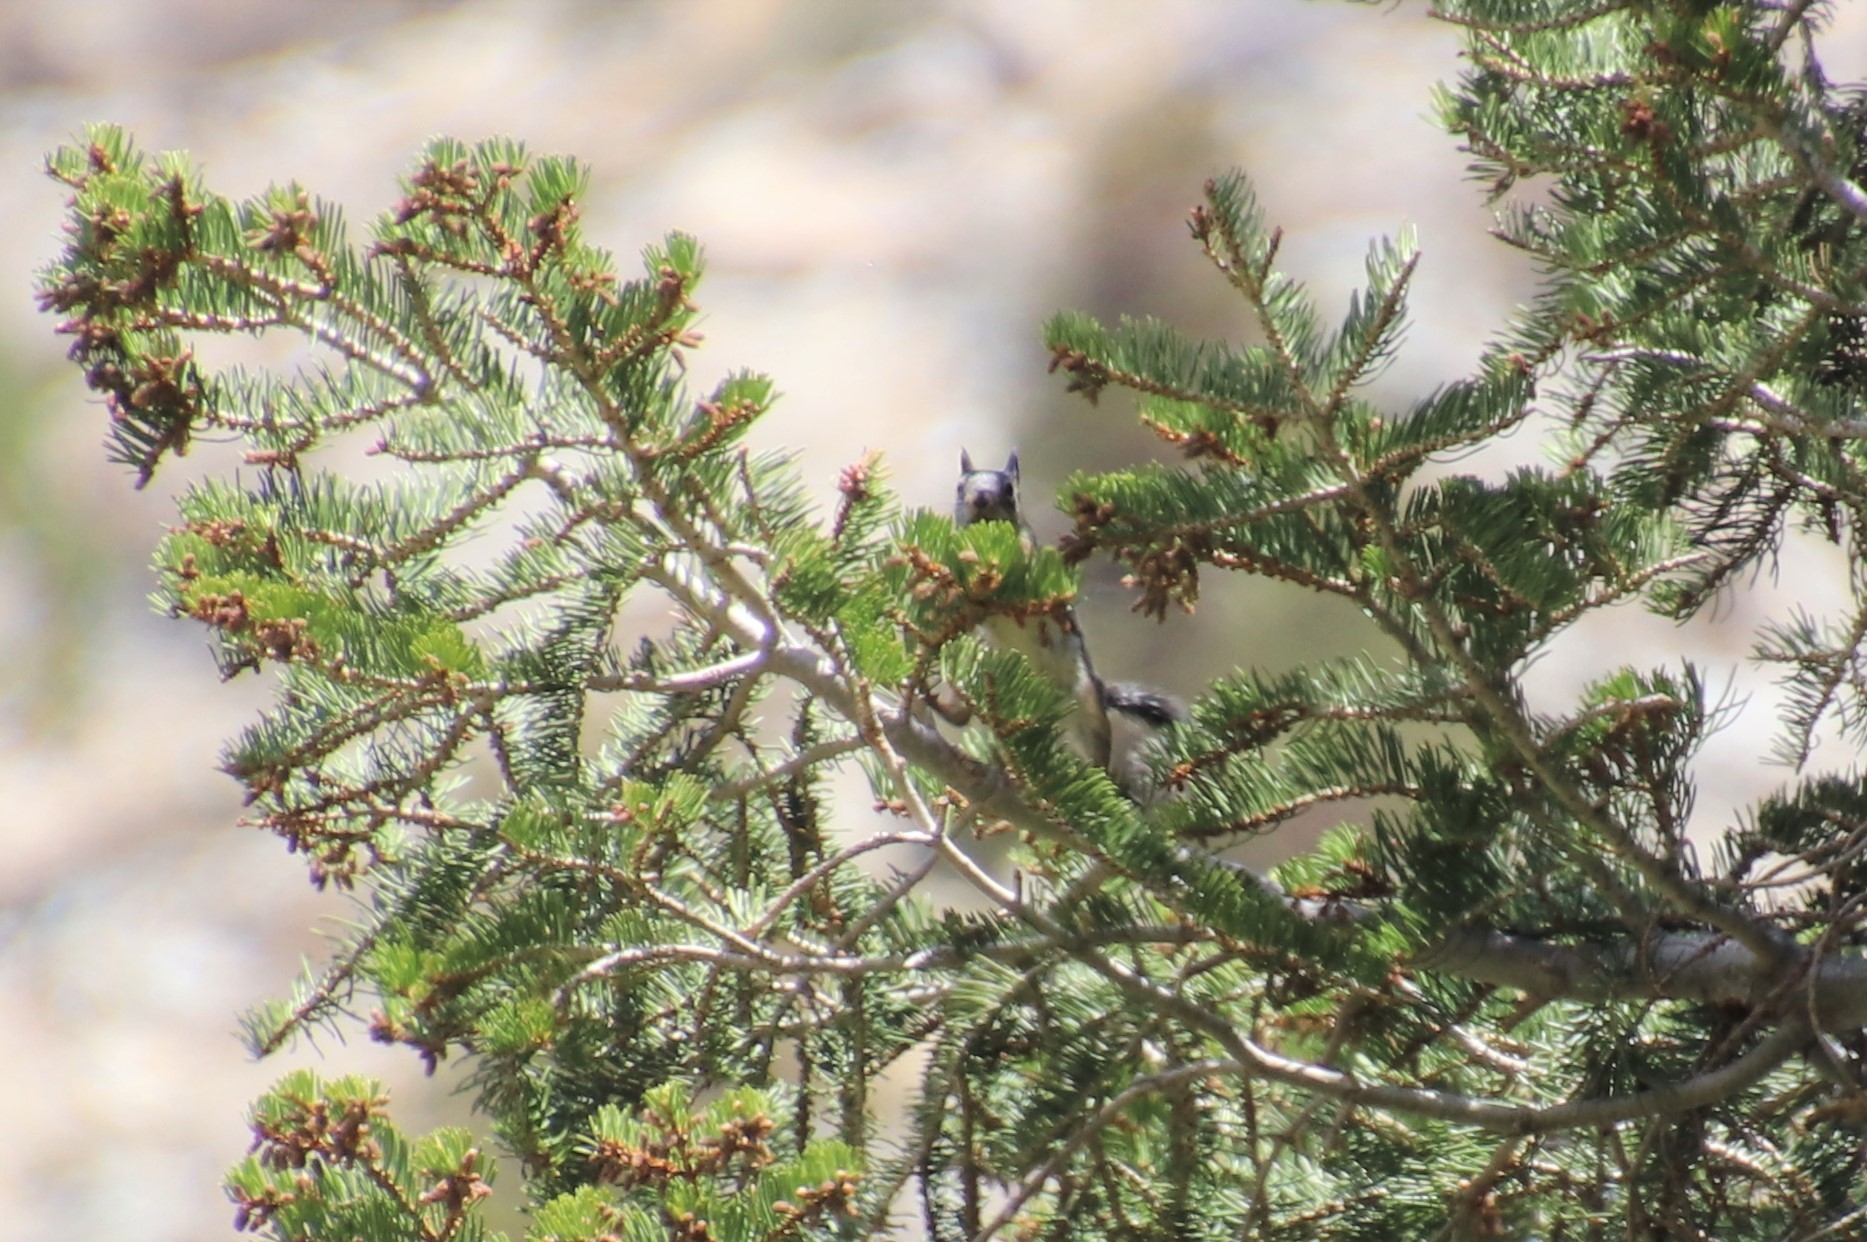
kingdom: Animalia
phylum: Chordata
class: Mammalia
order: Rodentia
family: Sciuridae
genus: Tamiasciurus
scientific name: Tamiasciurus douglasii
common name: Douglas's squirrel
